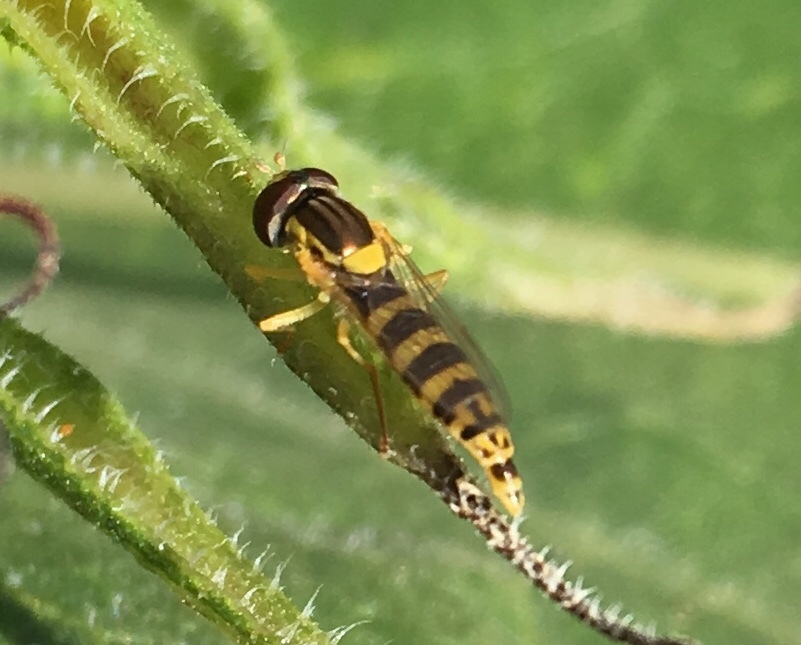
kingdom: Animalia
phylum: Arthropoda
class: Insecta
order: Diptera
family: Syrphidae
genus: Sphaerophoria
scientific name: Sphaerophoria
